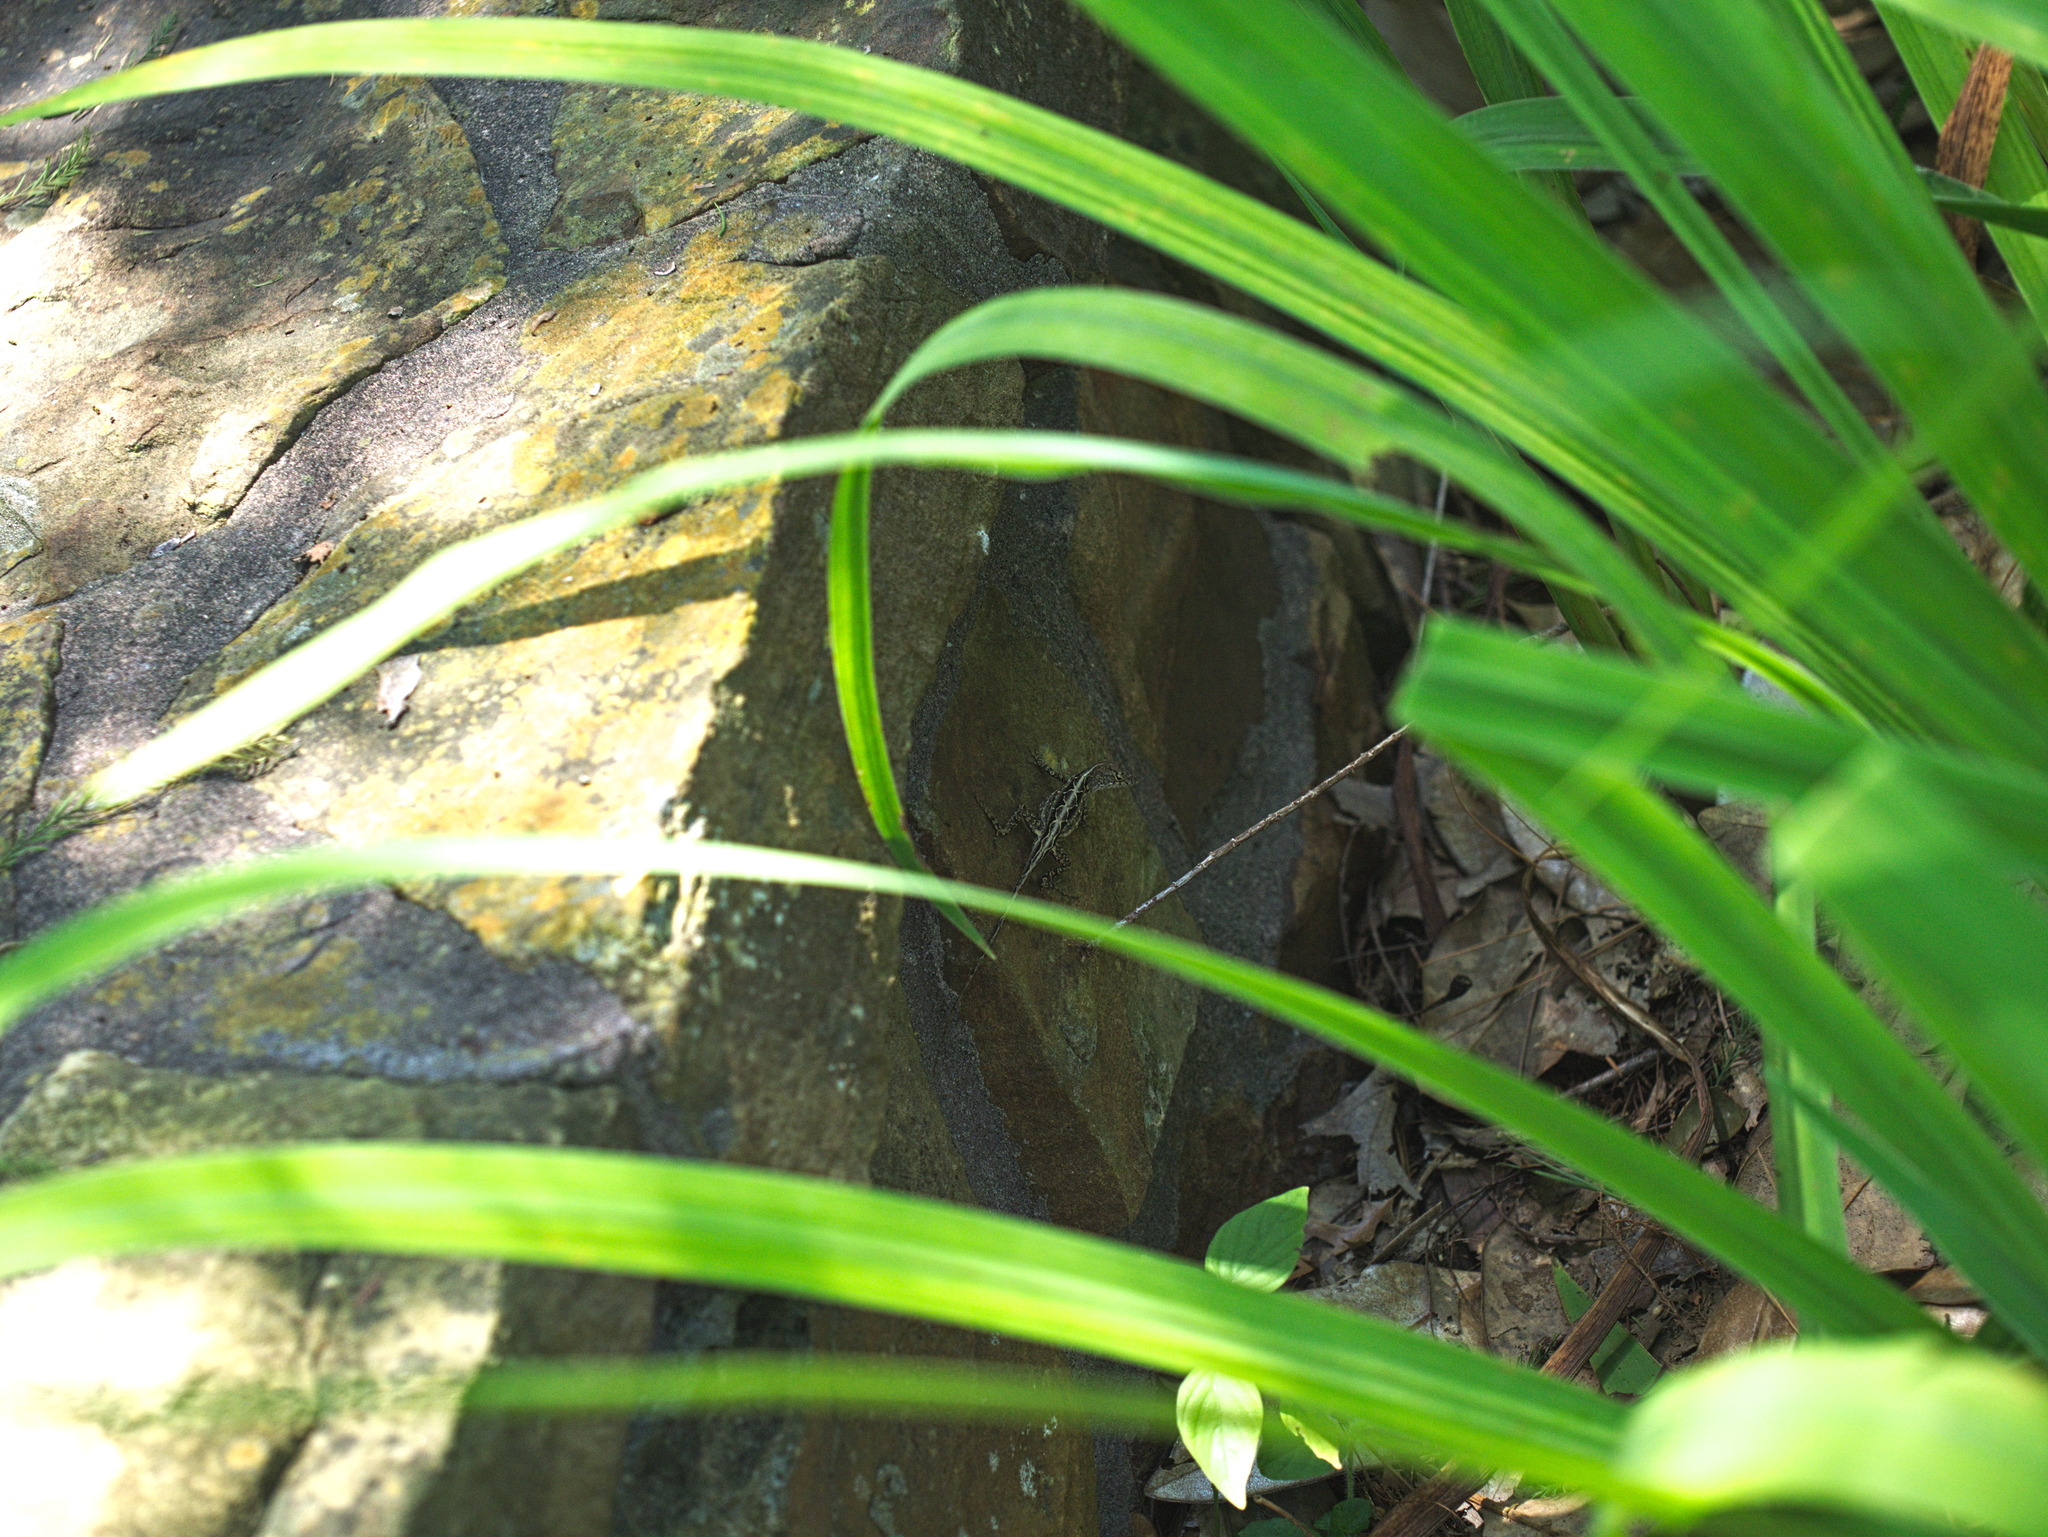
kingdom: Animalia
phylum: Chordata
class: Squamata
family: Dactyloidae
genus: Anolis
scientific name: Anolis sagrei
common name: Brown anole
